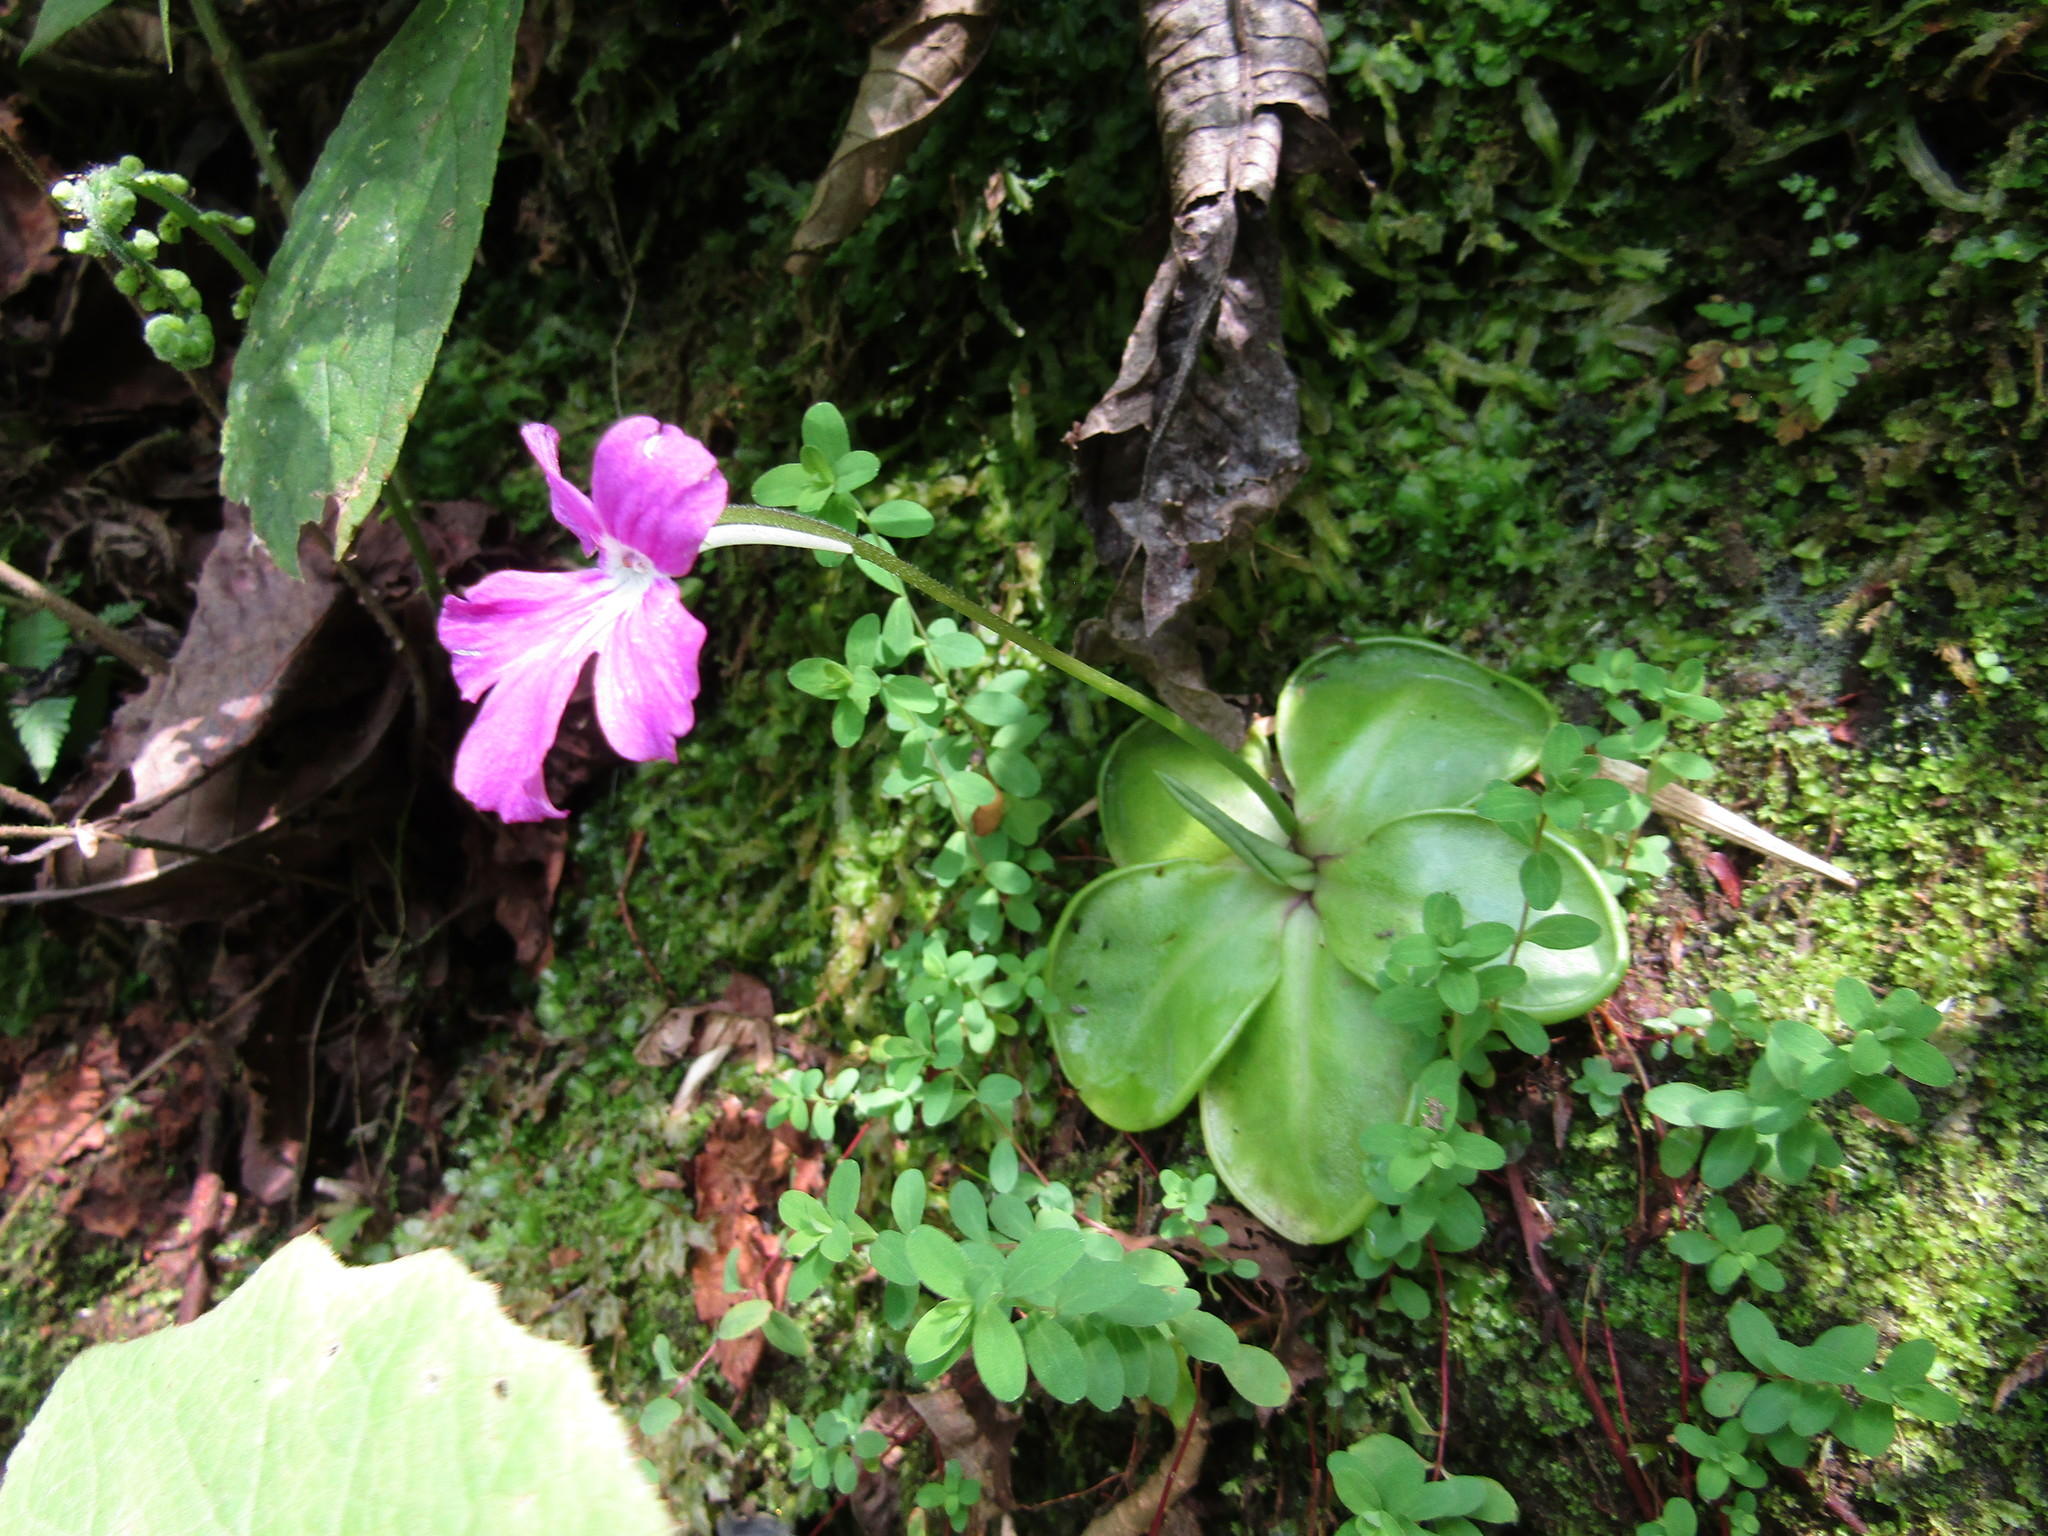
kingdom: Plantae
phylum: Tracheophyta
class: Magnoliopsida
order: Lamiales
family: Lentibulariaceae
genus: Pinguicula
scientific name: Pinguicula moranensis
